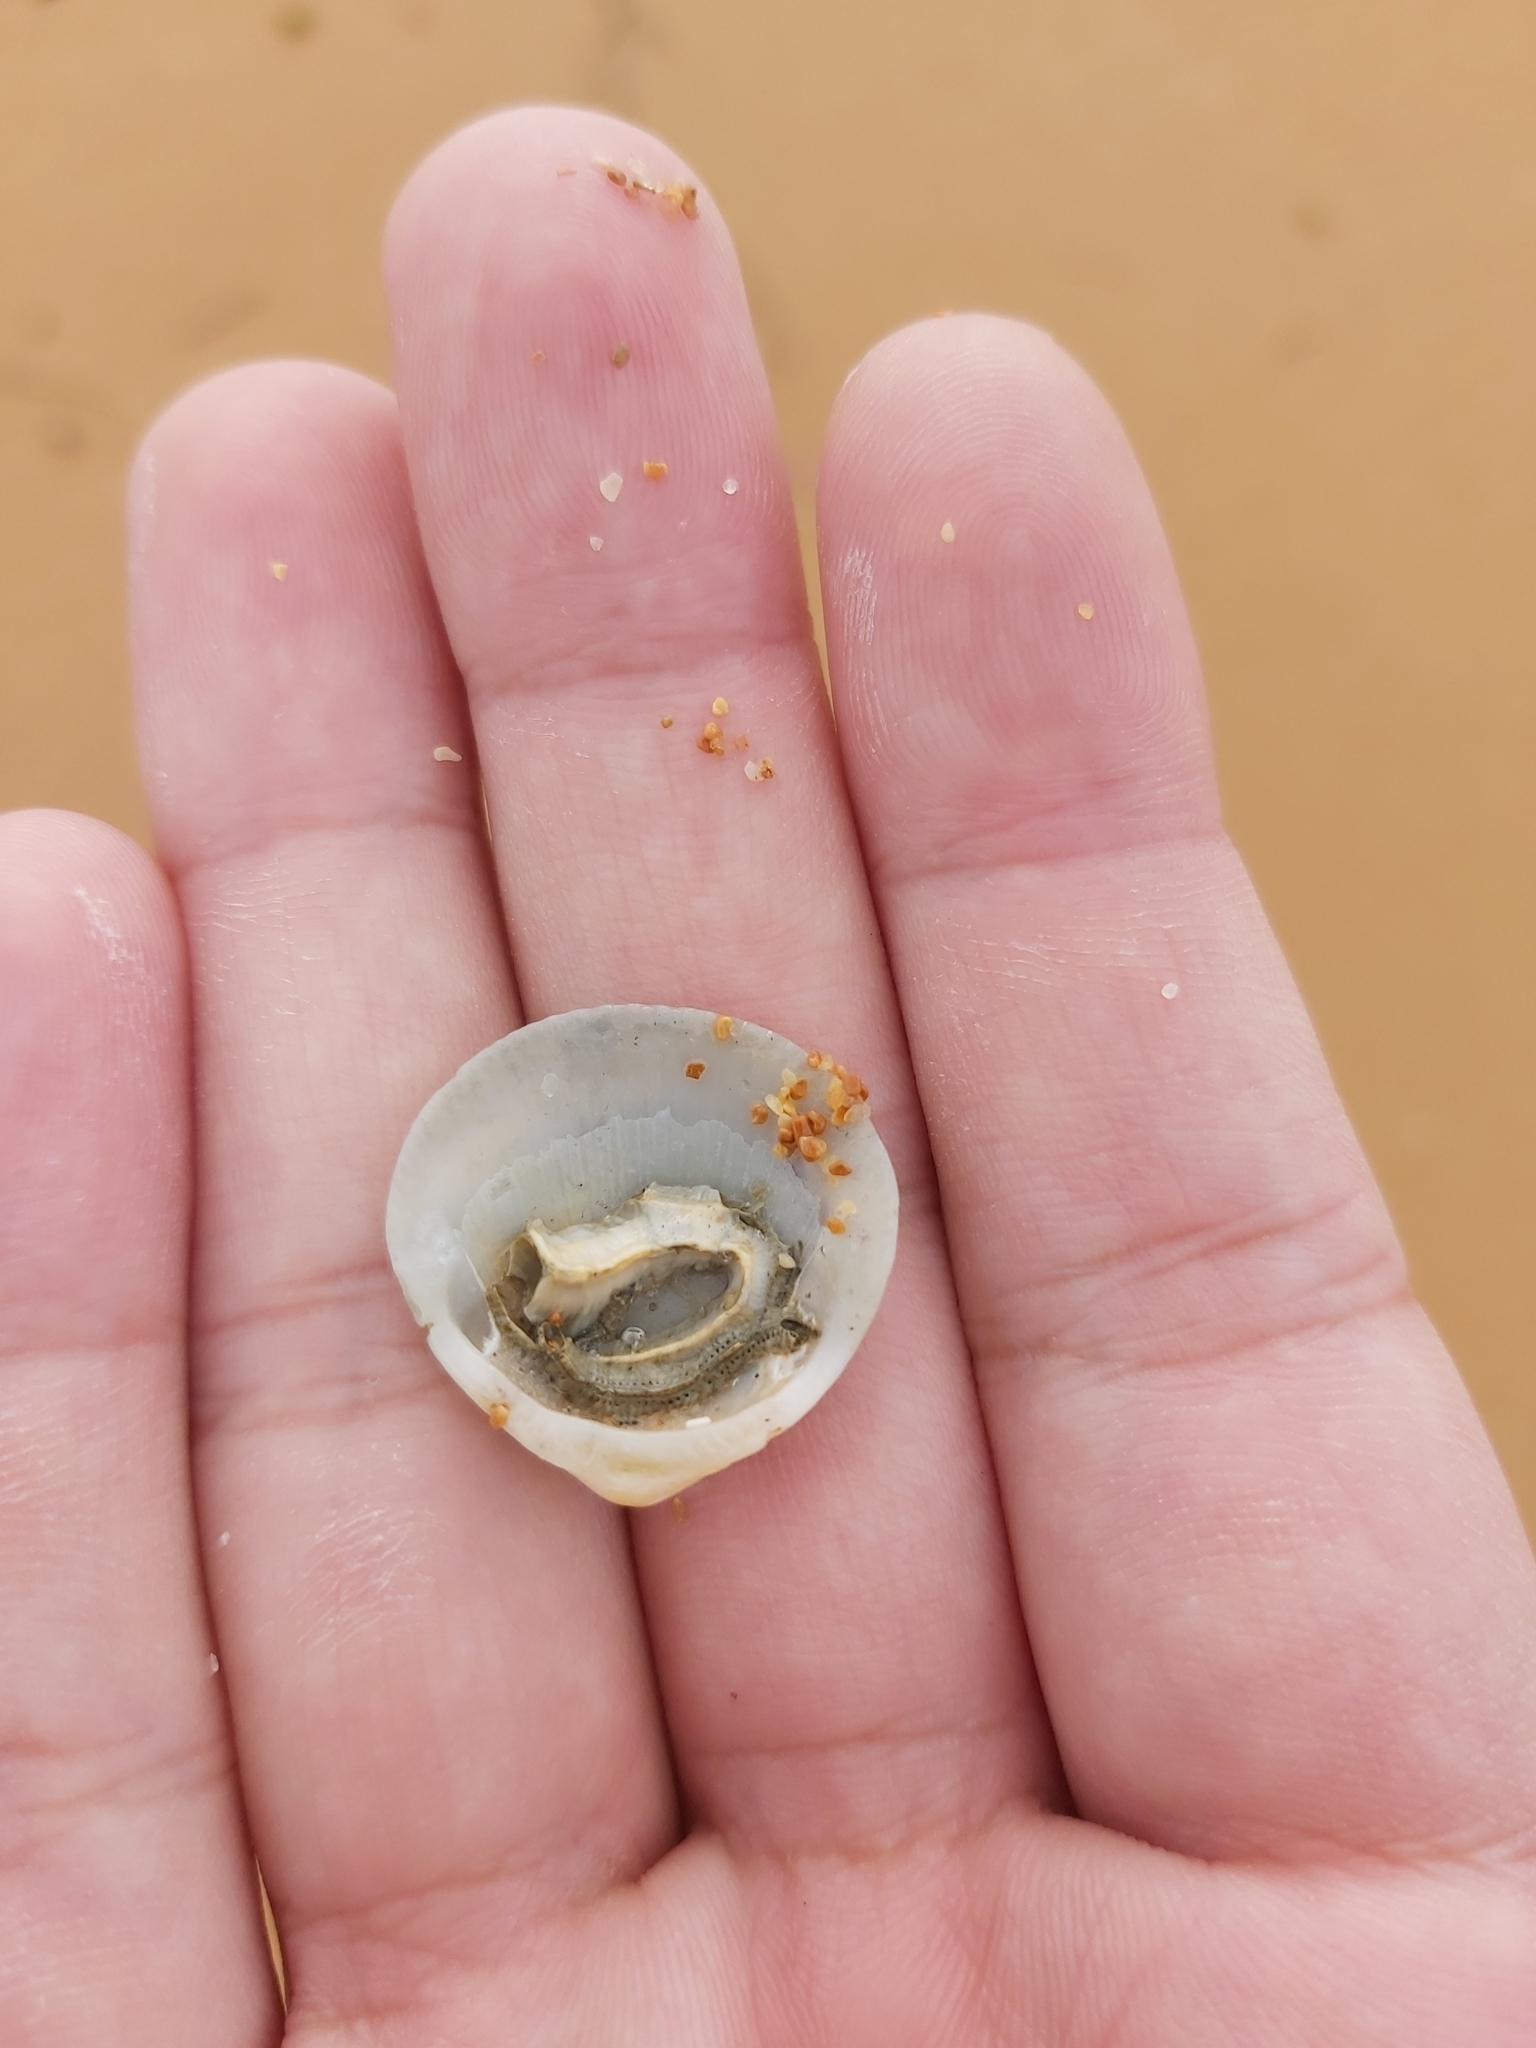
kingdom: Animalia
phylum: Mollusca
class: Bivalvia
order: Arcida
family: Glycymerididae
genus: Glycymeris
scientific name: Glycymeris grayana
